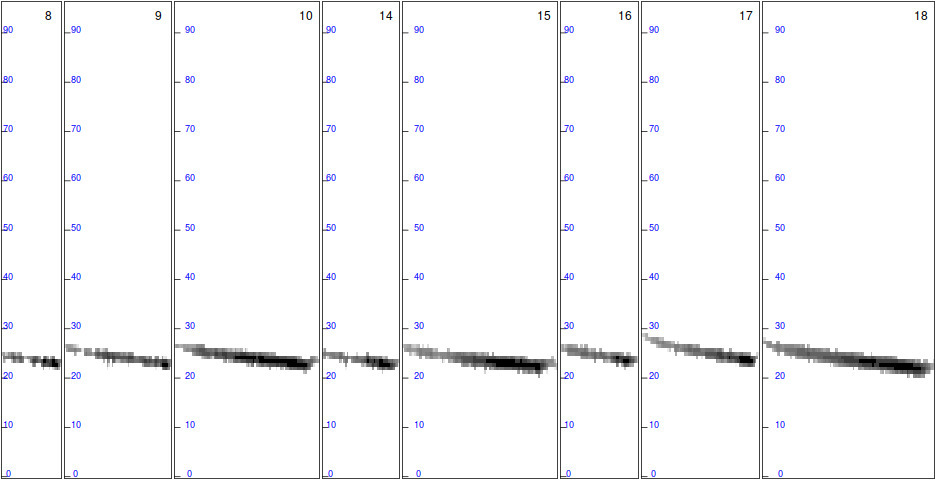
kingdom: Animalia
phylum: Chordata
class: Mammalia
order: Chiroptera
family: Vespertilionidae
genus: Nyctalus
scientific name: Nyctalus leisleri
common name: Lesser noctule
